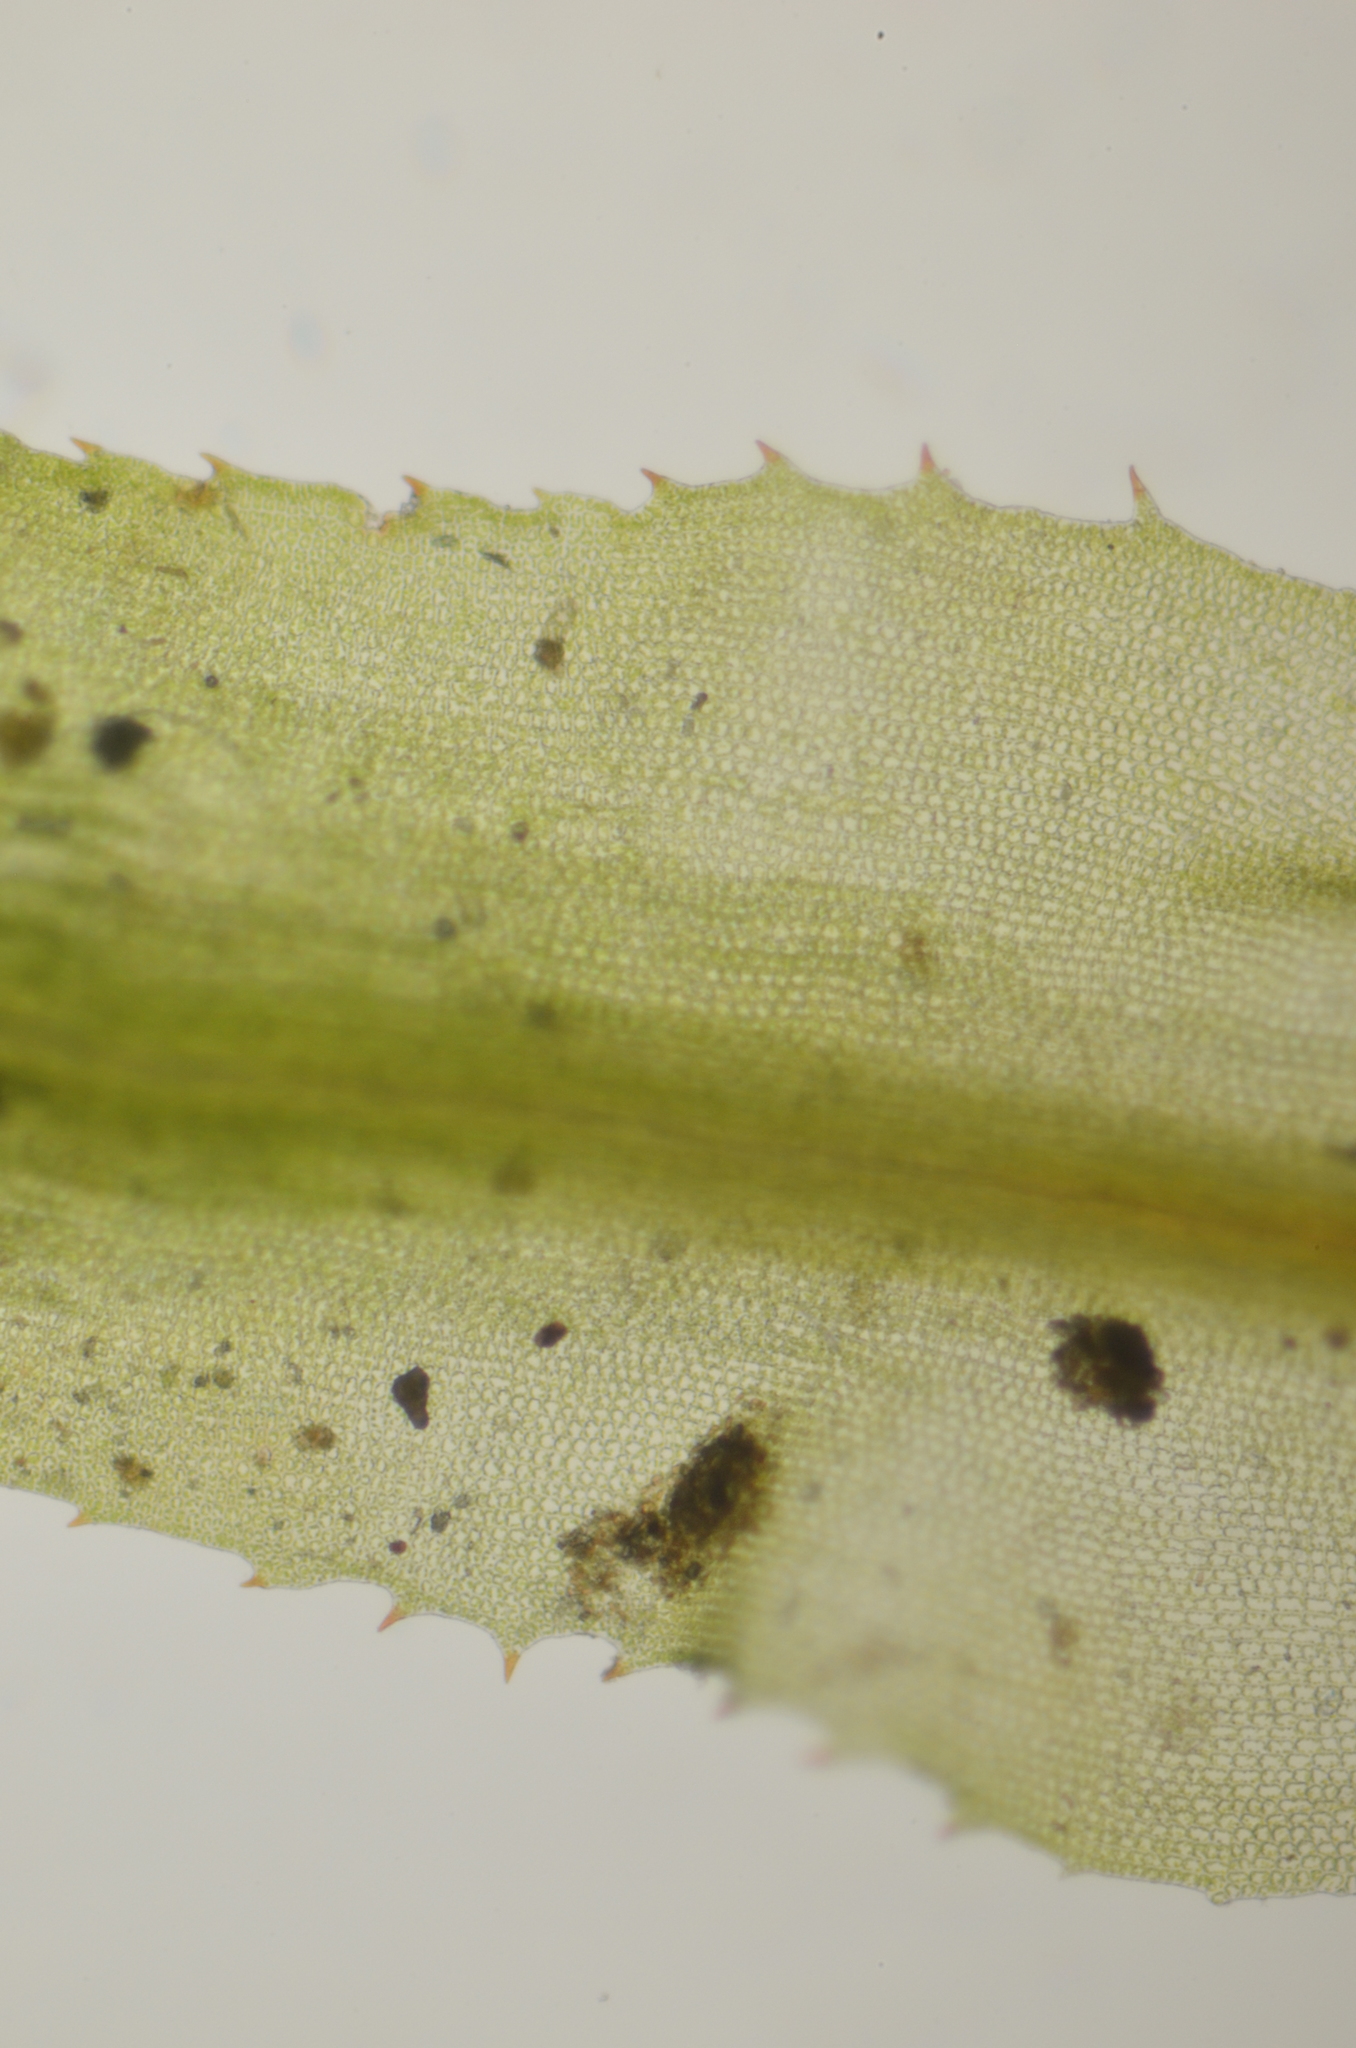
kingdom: Plantae
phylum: Bryophyta
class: Polytrichopsida
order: Polytrichales
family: Polytrichaceae
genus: Polytrichum
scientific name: Polytrichum longisetum
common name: Long-stalked haircap moss
